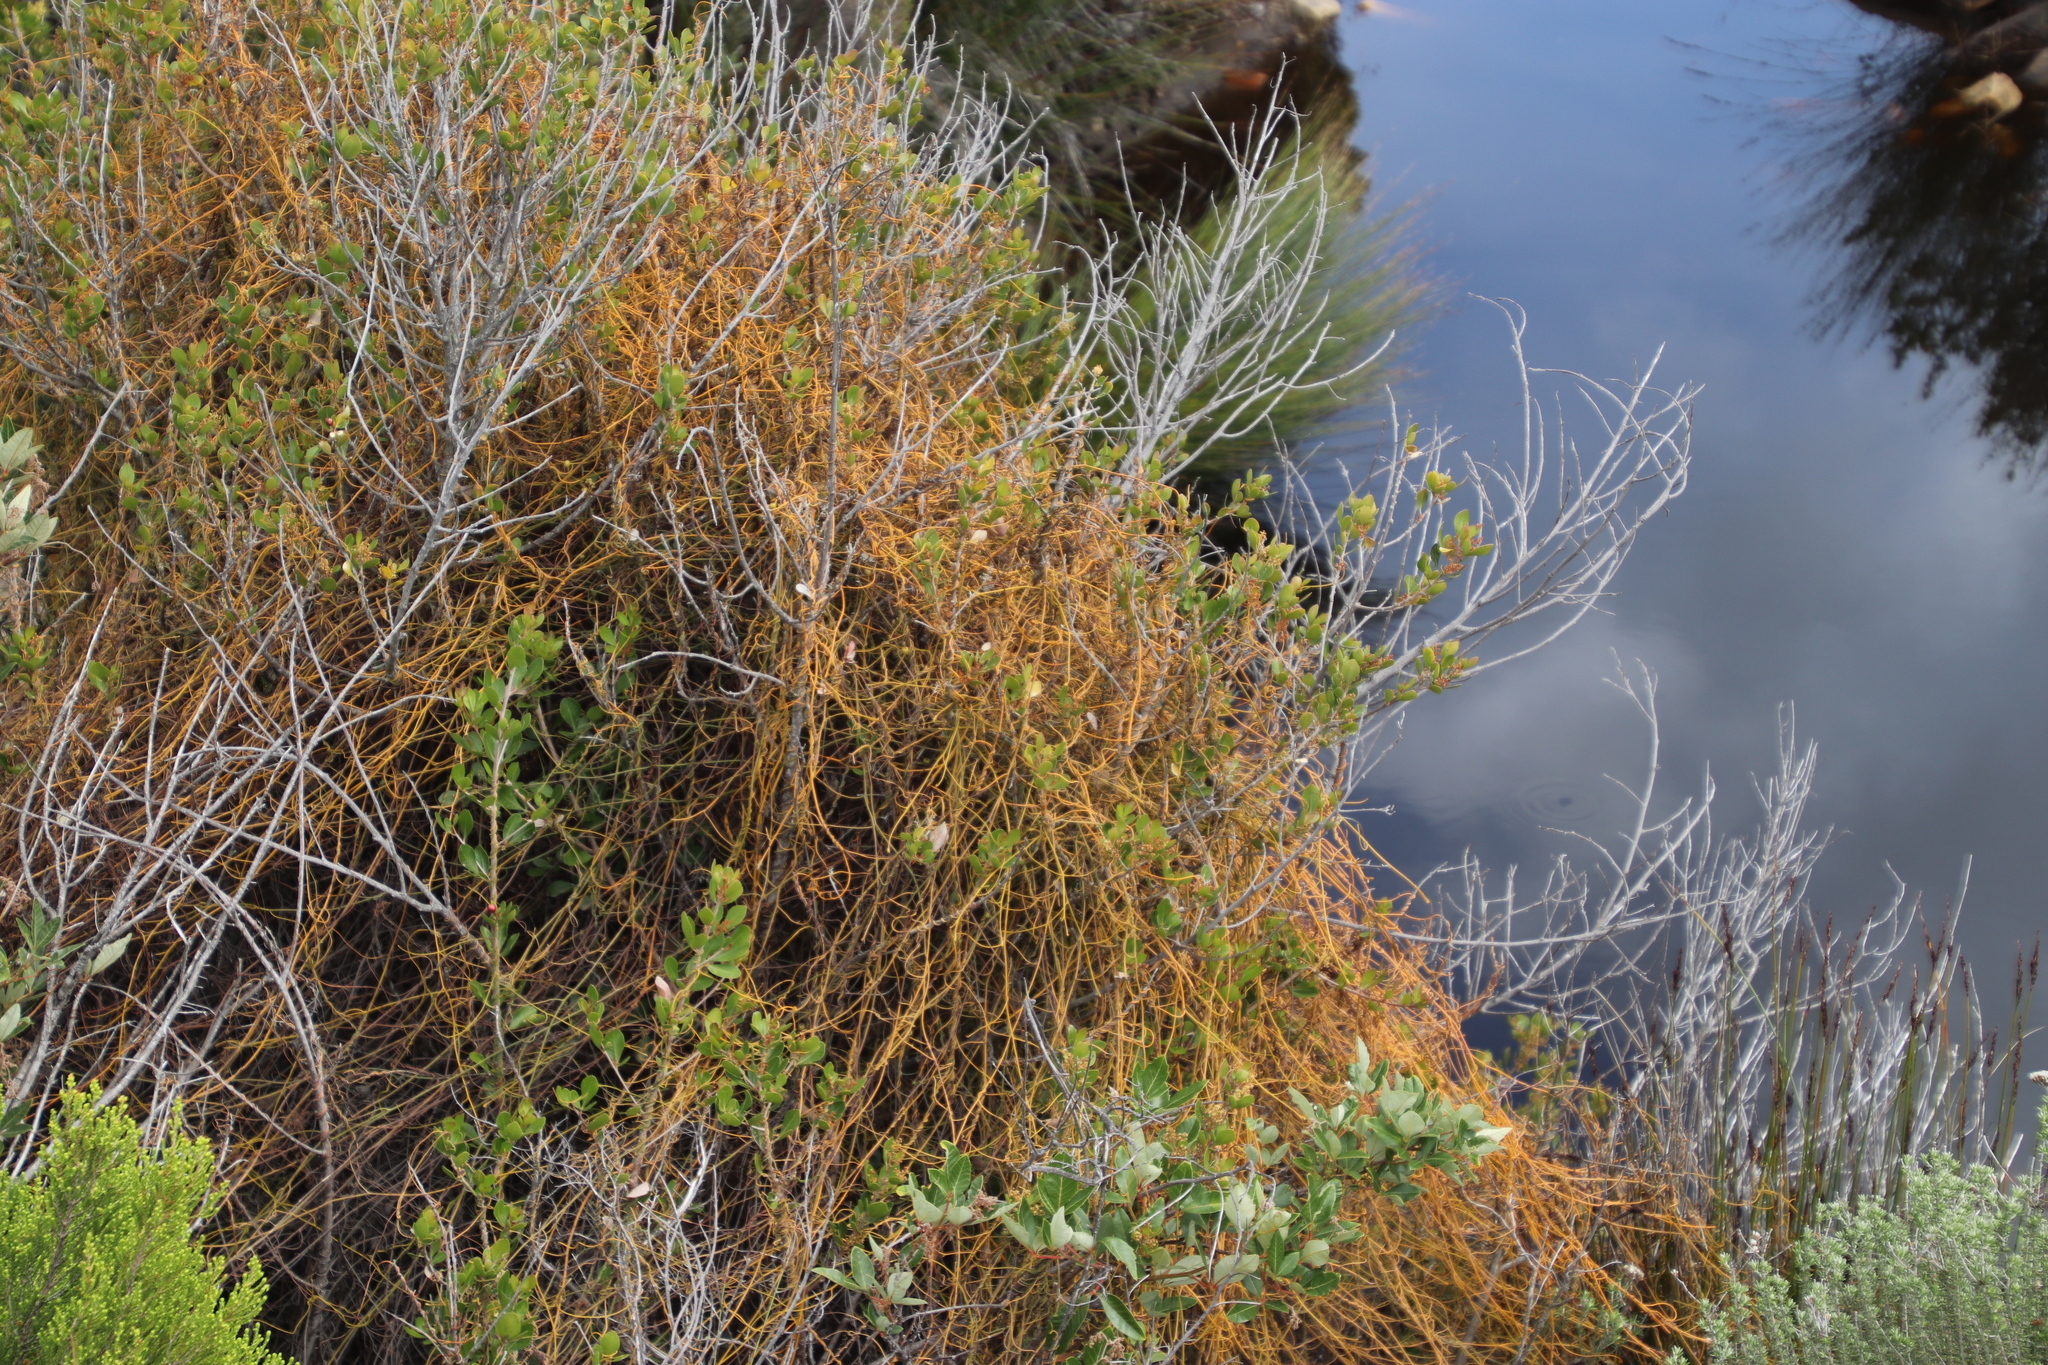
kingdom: Plantae
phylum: Tracheophyta
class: Magnoliopsida
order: Laurales
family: Lauraceae
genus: Cassytha
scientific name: Cassytha ciliolata
